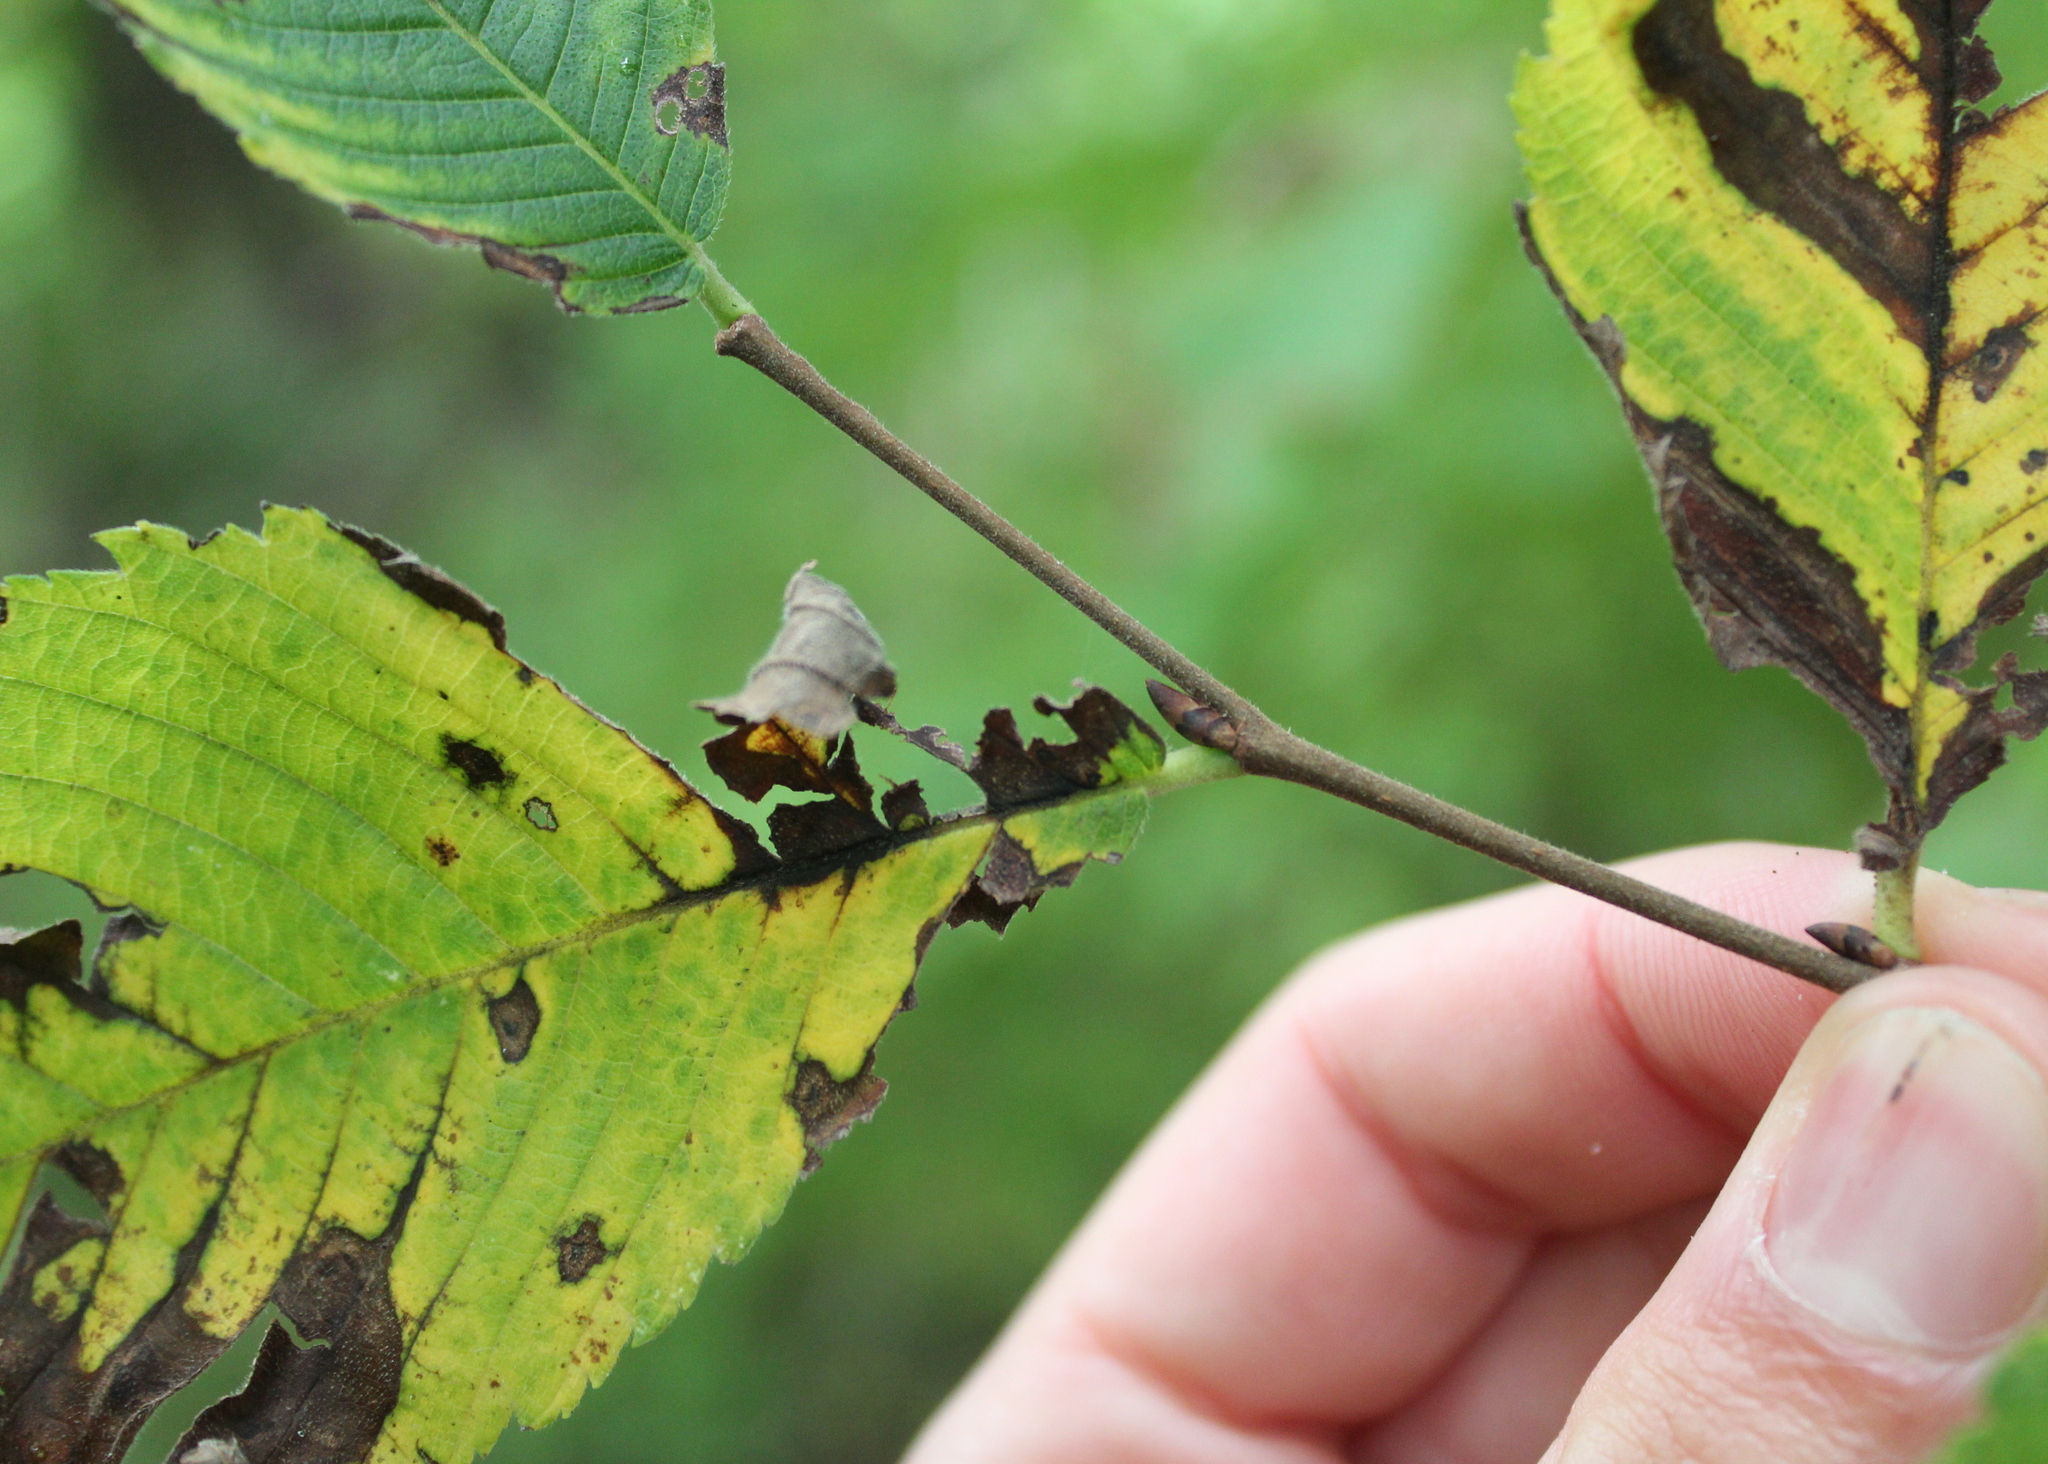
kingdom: Plantae
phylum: Tracheophyta
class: Magnoliopsida
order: Rosales
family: Ulmaceae
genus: Ulmus
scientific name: Ulmus americana
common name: American elm
